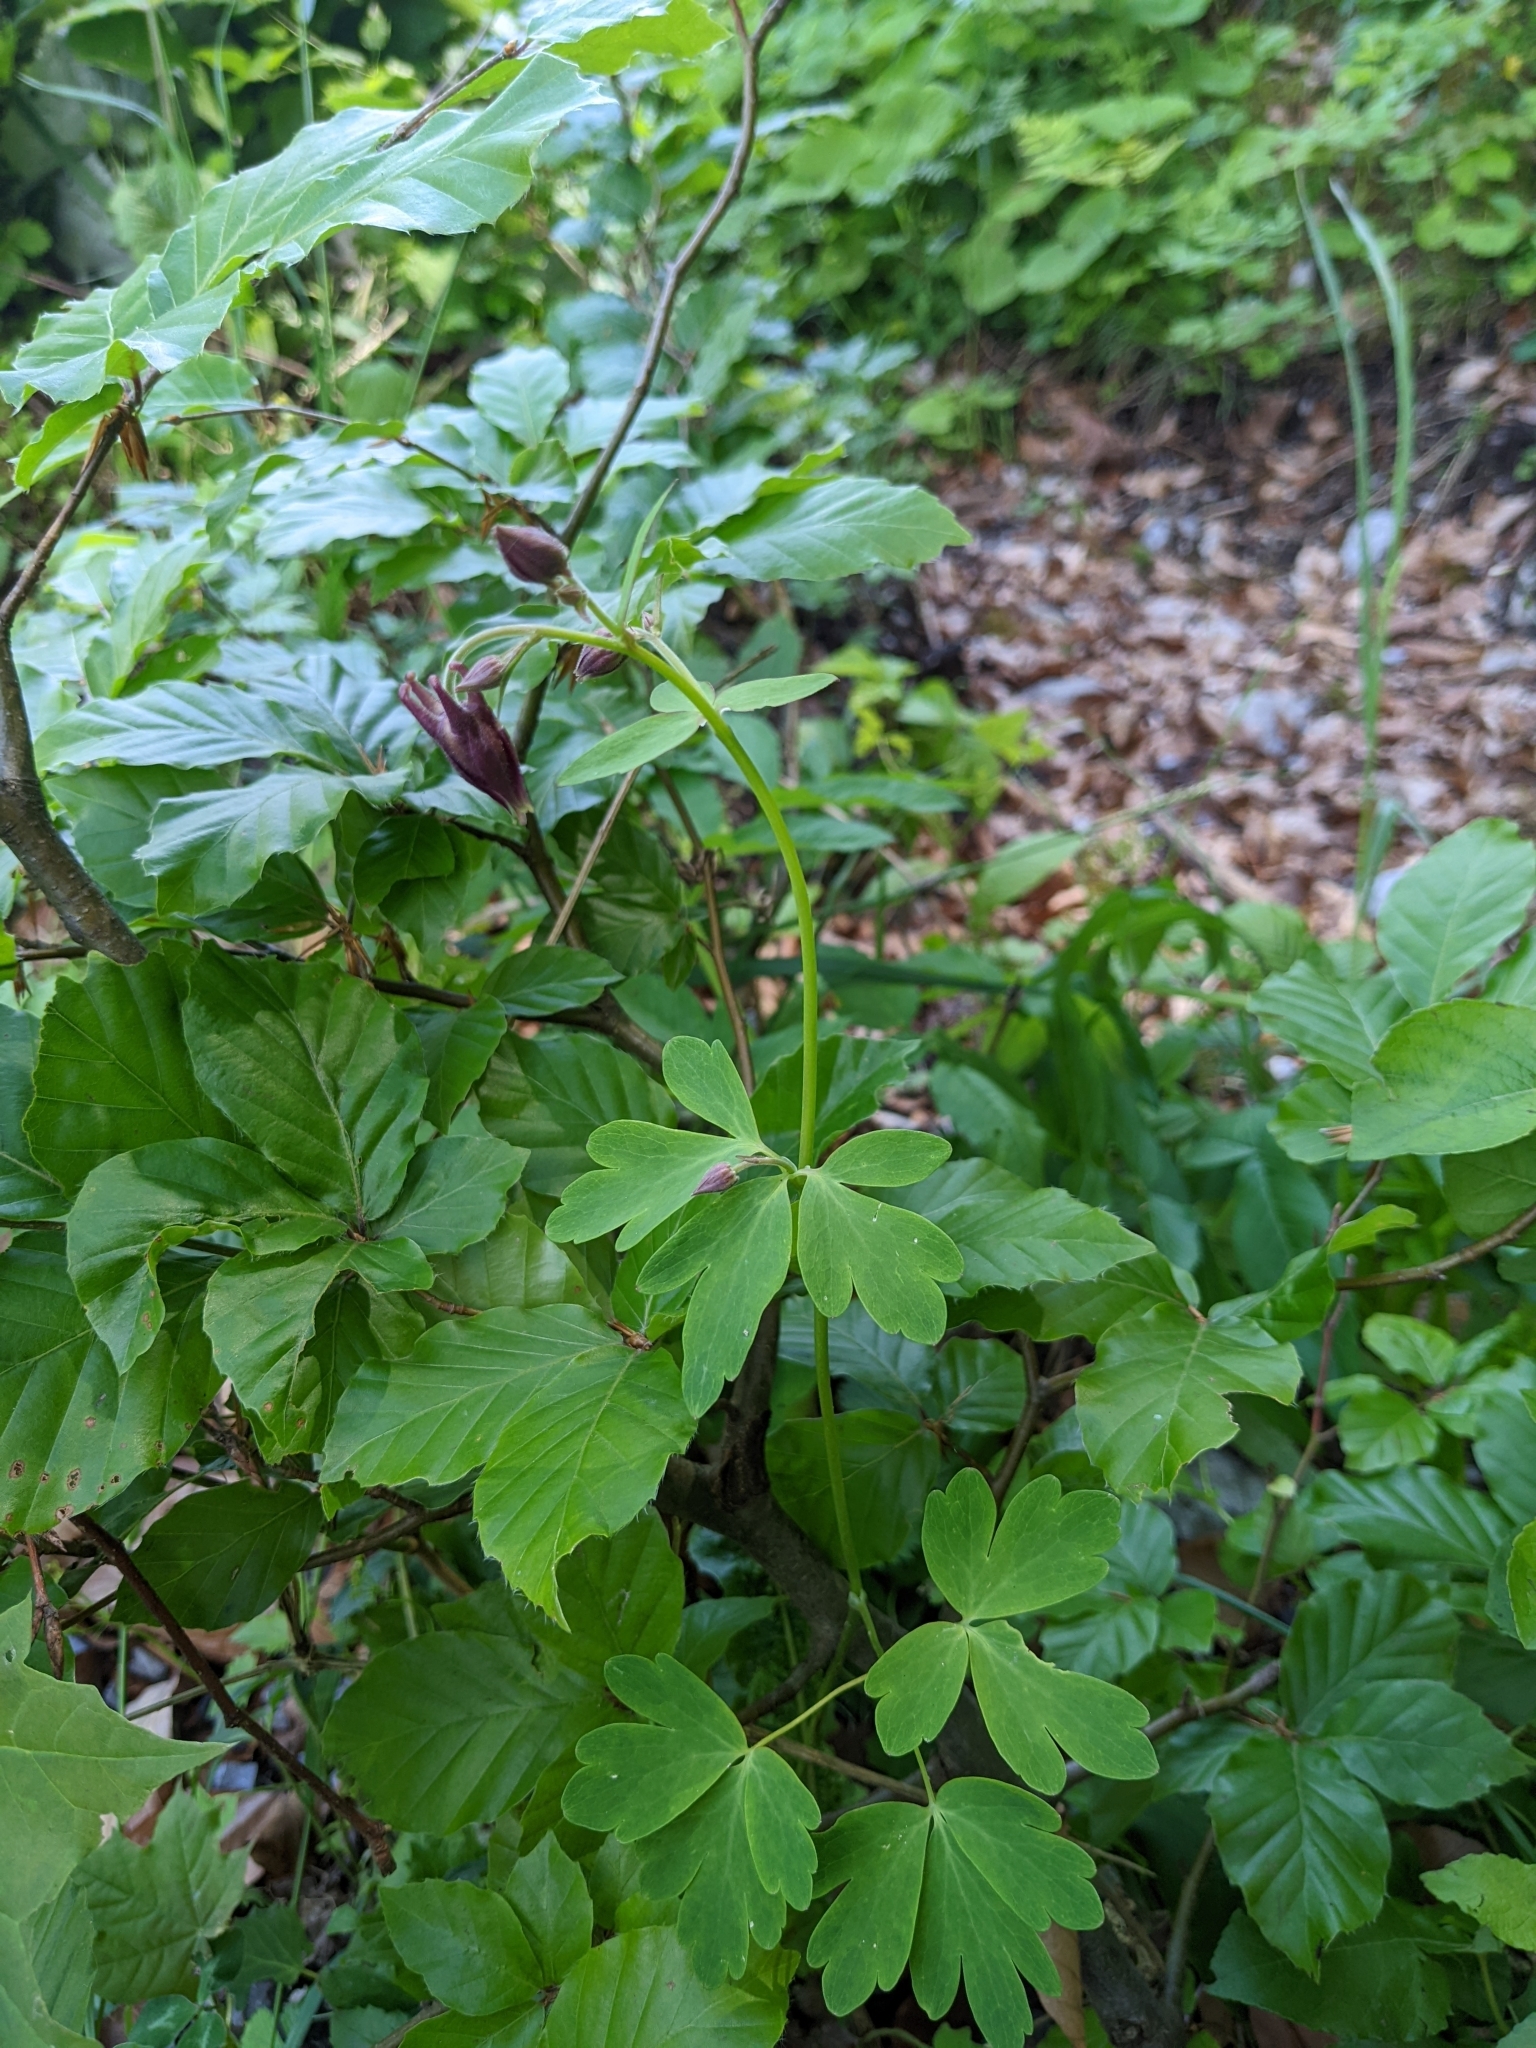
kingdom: Plantae
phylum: Tracheophyta
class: Magnoliopsida
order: Ranunculales
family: Ranunculaceae
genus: Aquilegia
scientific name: Aquilegia atrata
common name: Dark columbine
